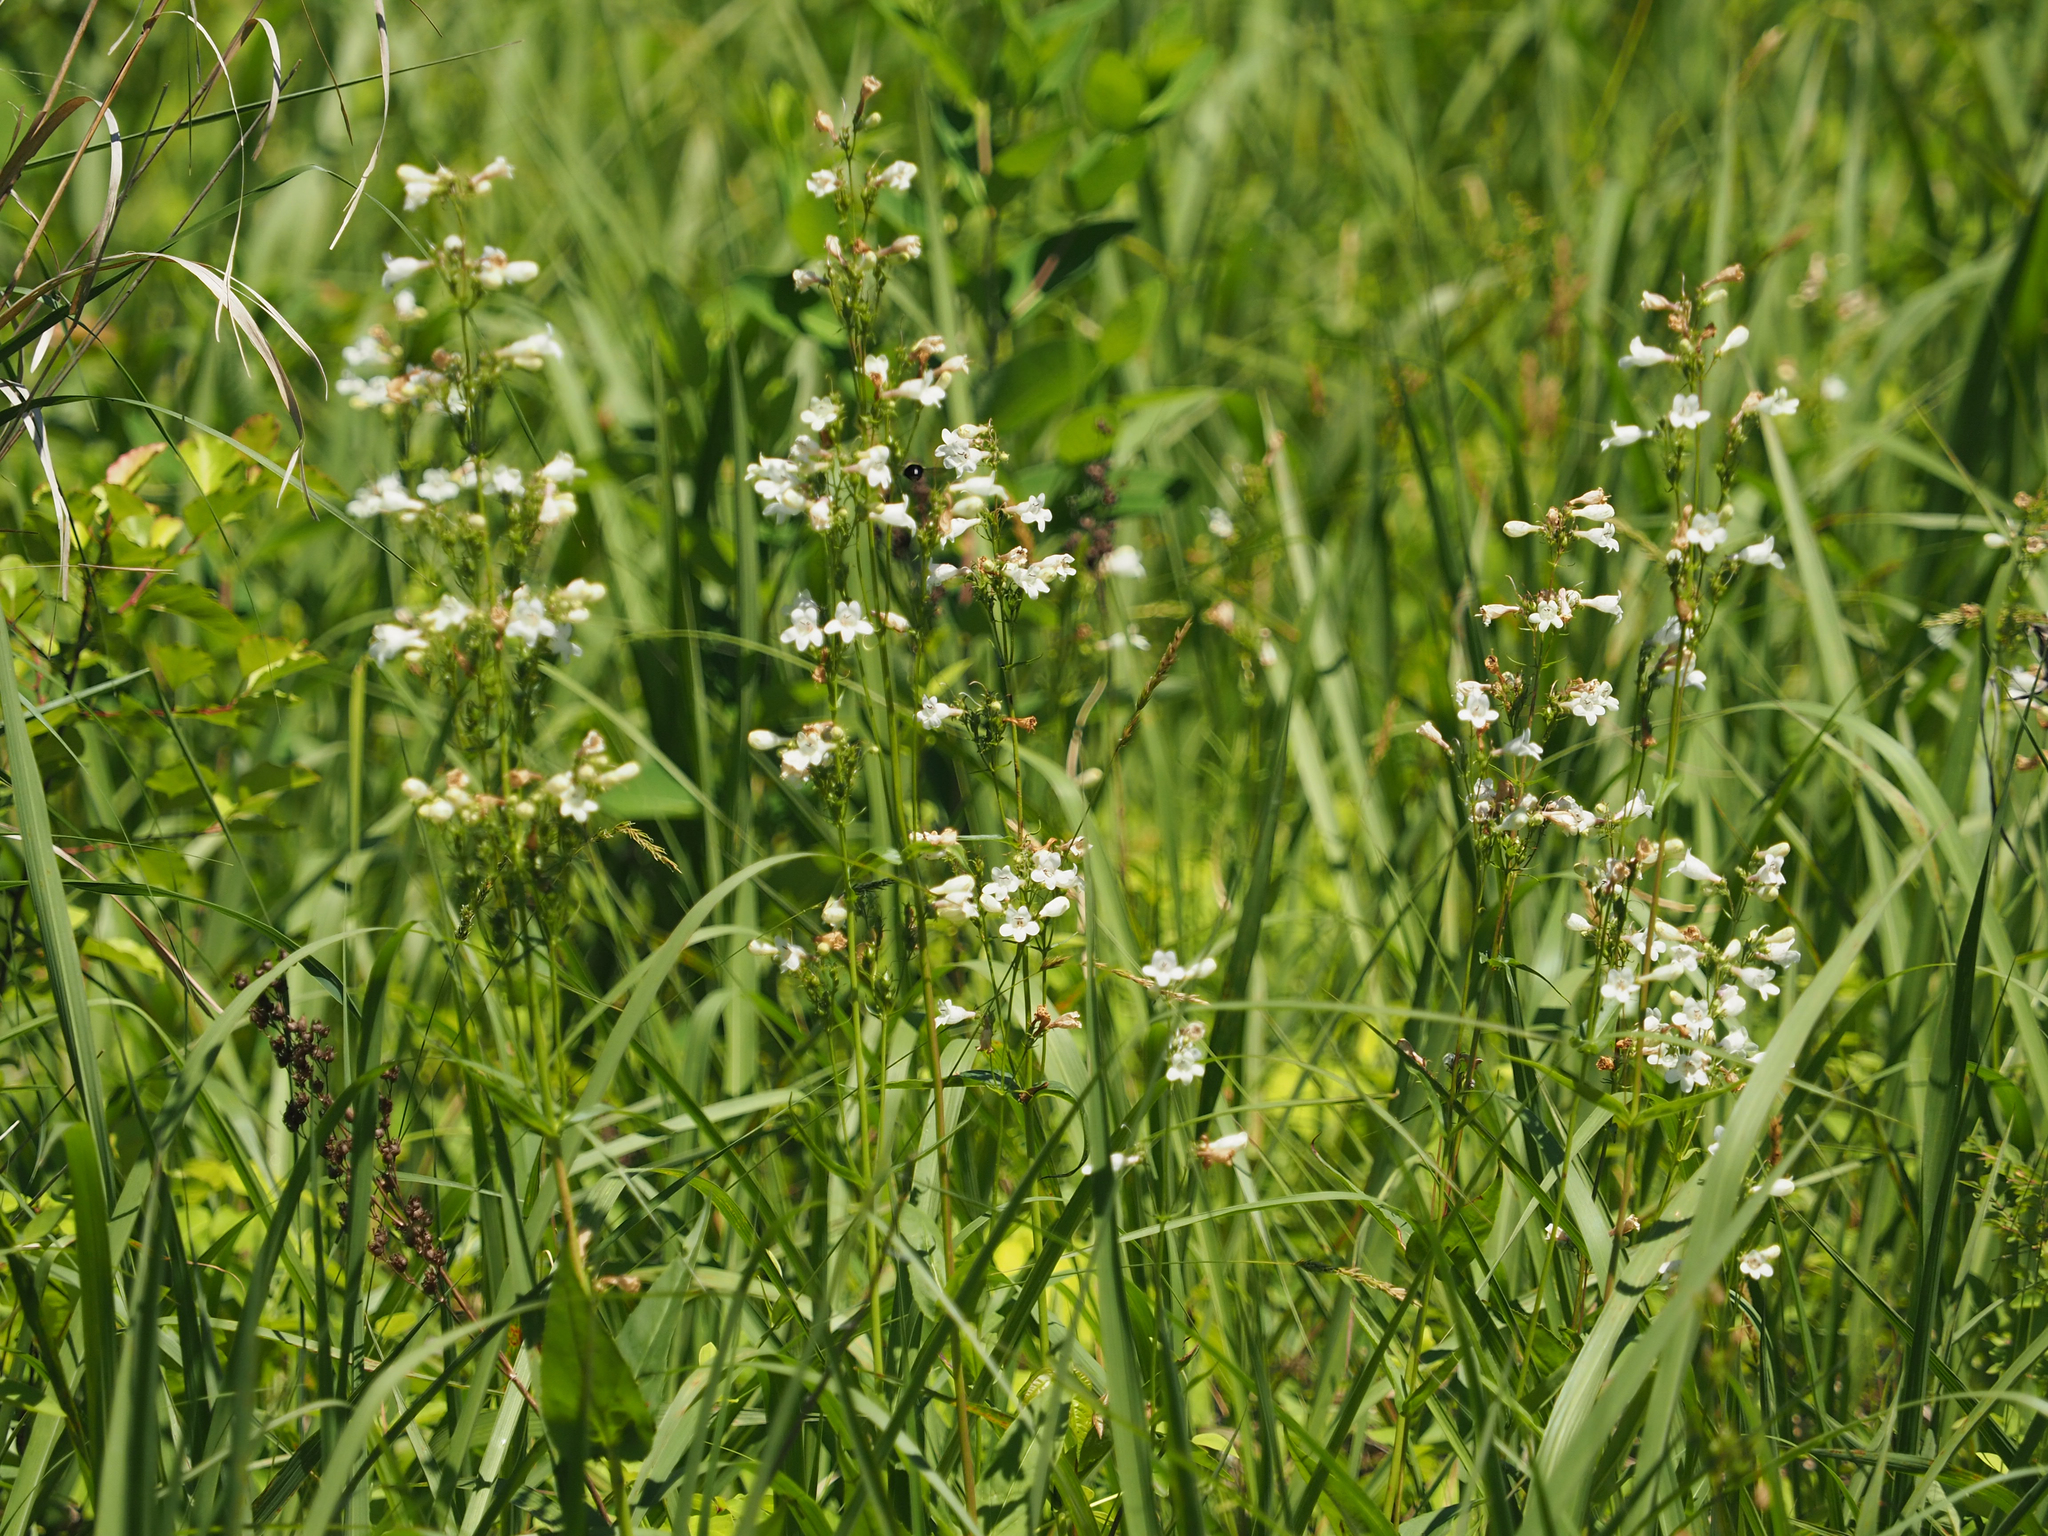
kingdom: Plantae
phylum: Tracheophyta
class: Magnoliopsida
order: Lamiales
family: Plantaginaceae
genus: Penstemon
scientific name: Penstemon digitalis
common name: Foxglove beardtongue
